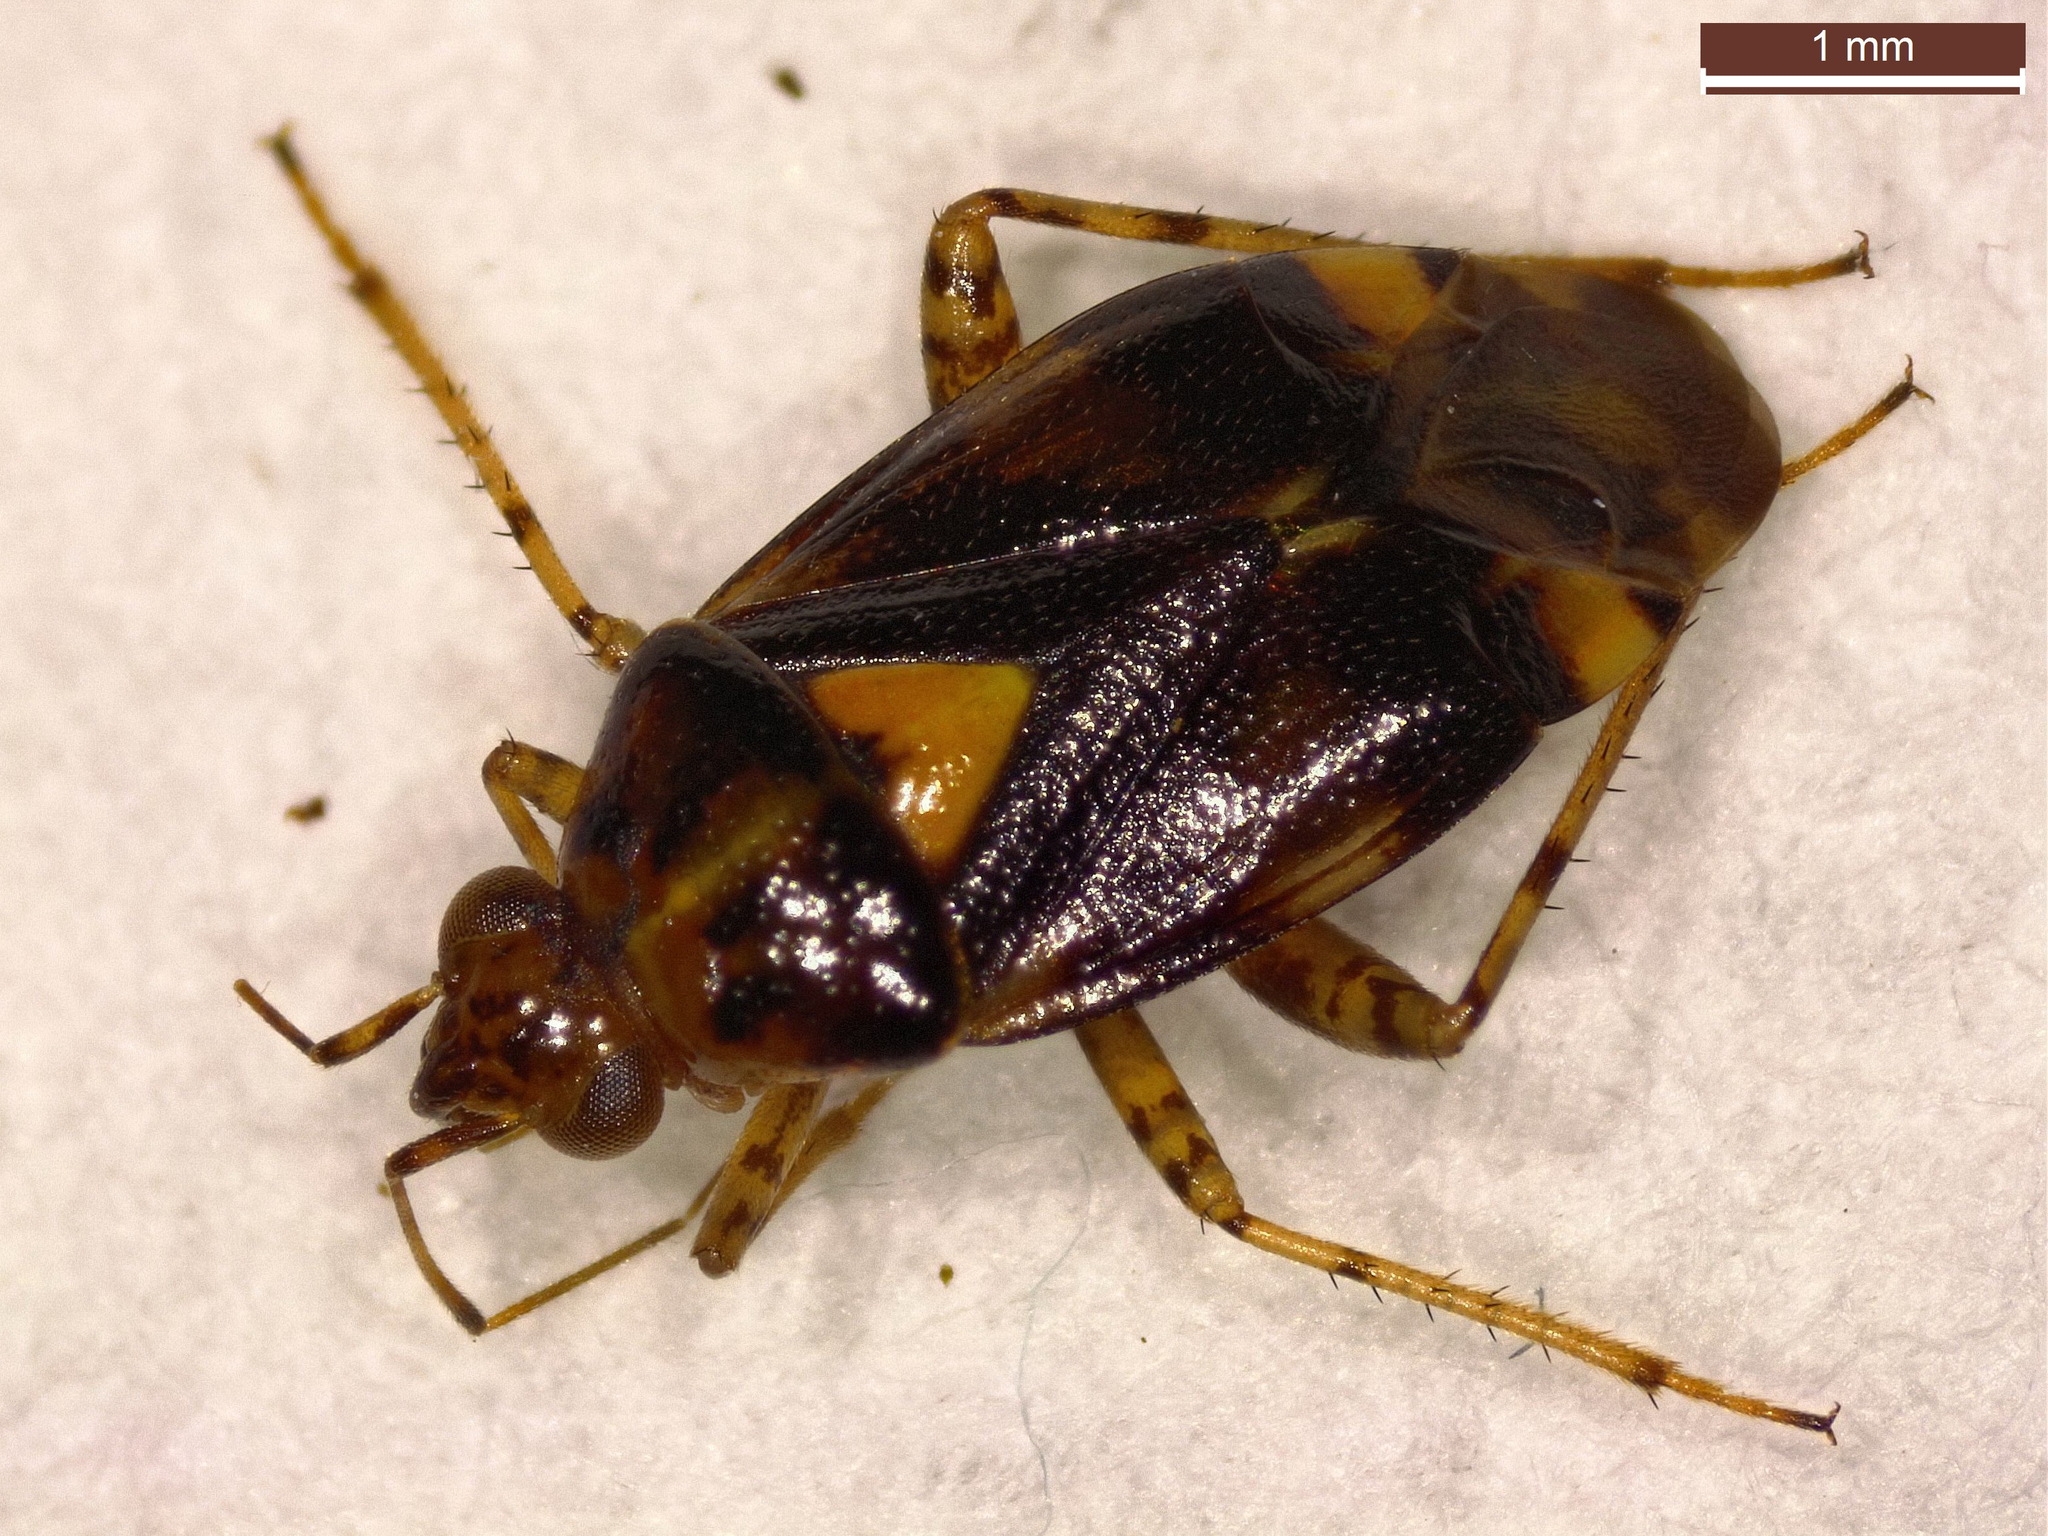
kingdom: Animalia
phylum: Arthropoda
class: Insecta
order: Hemiptera
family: Miridae
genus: Liocoris
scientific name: Liocoris tripustulatus
